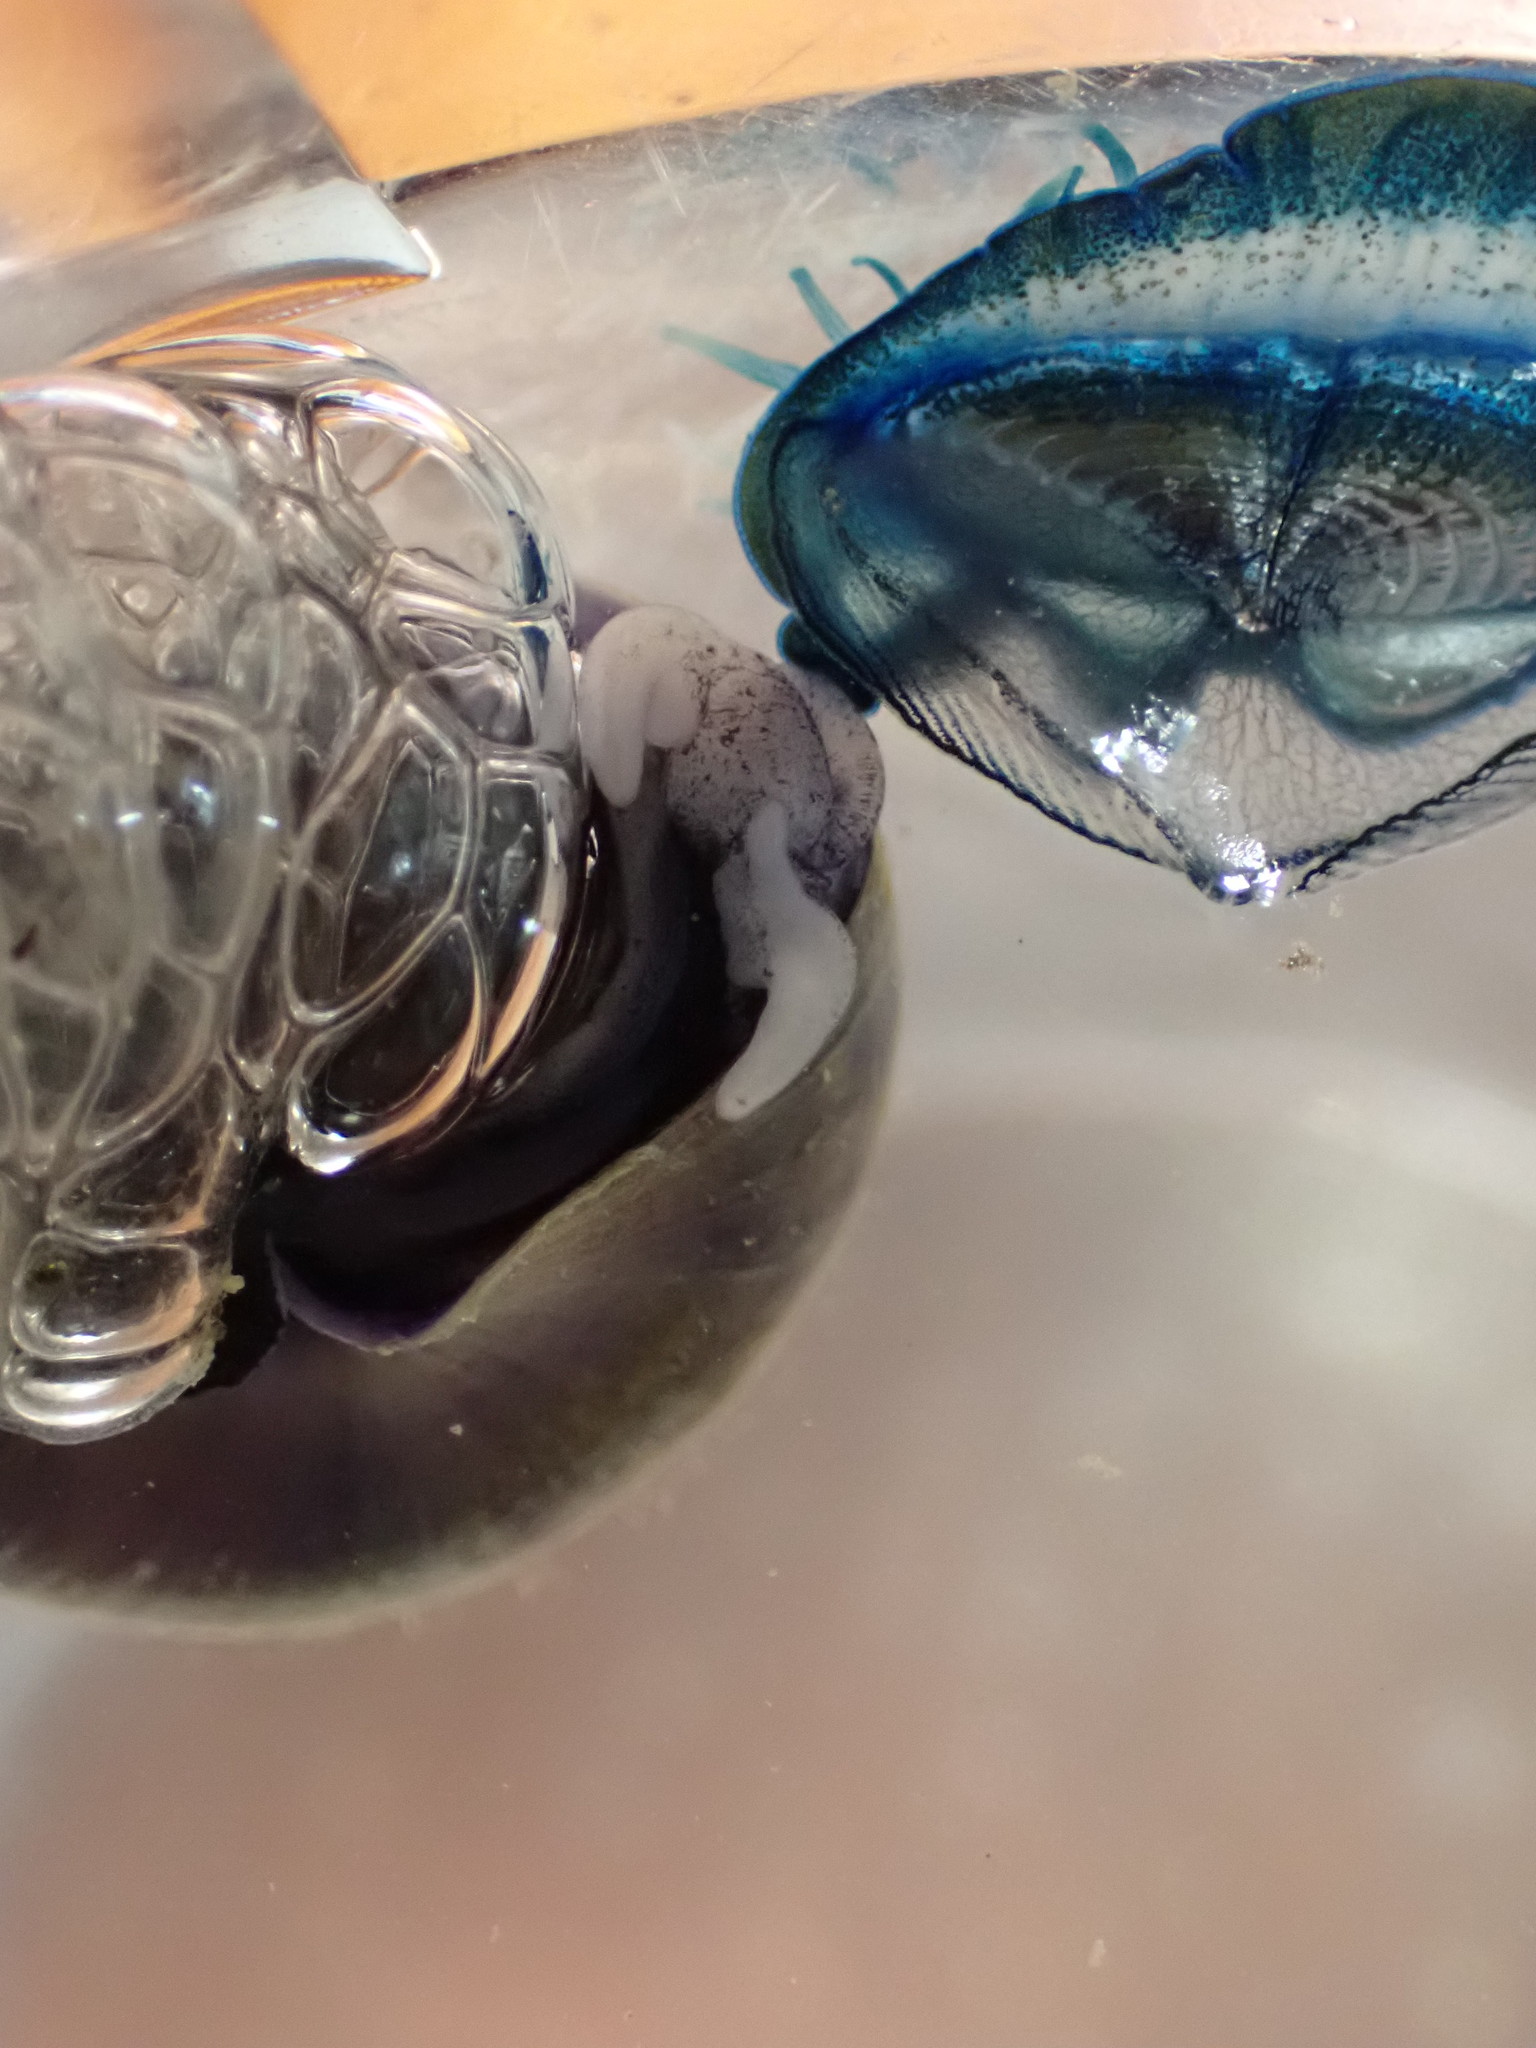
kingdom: Animalia
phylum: Mollusca
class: Gastropoda
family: Epitoniidae
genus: Janthina
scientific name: Janthina janthina
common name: Common janthina
